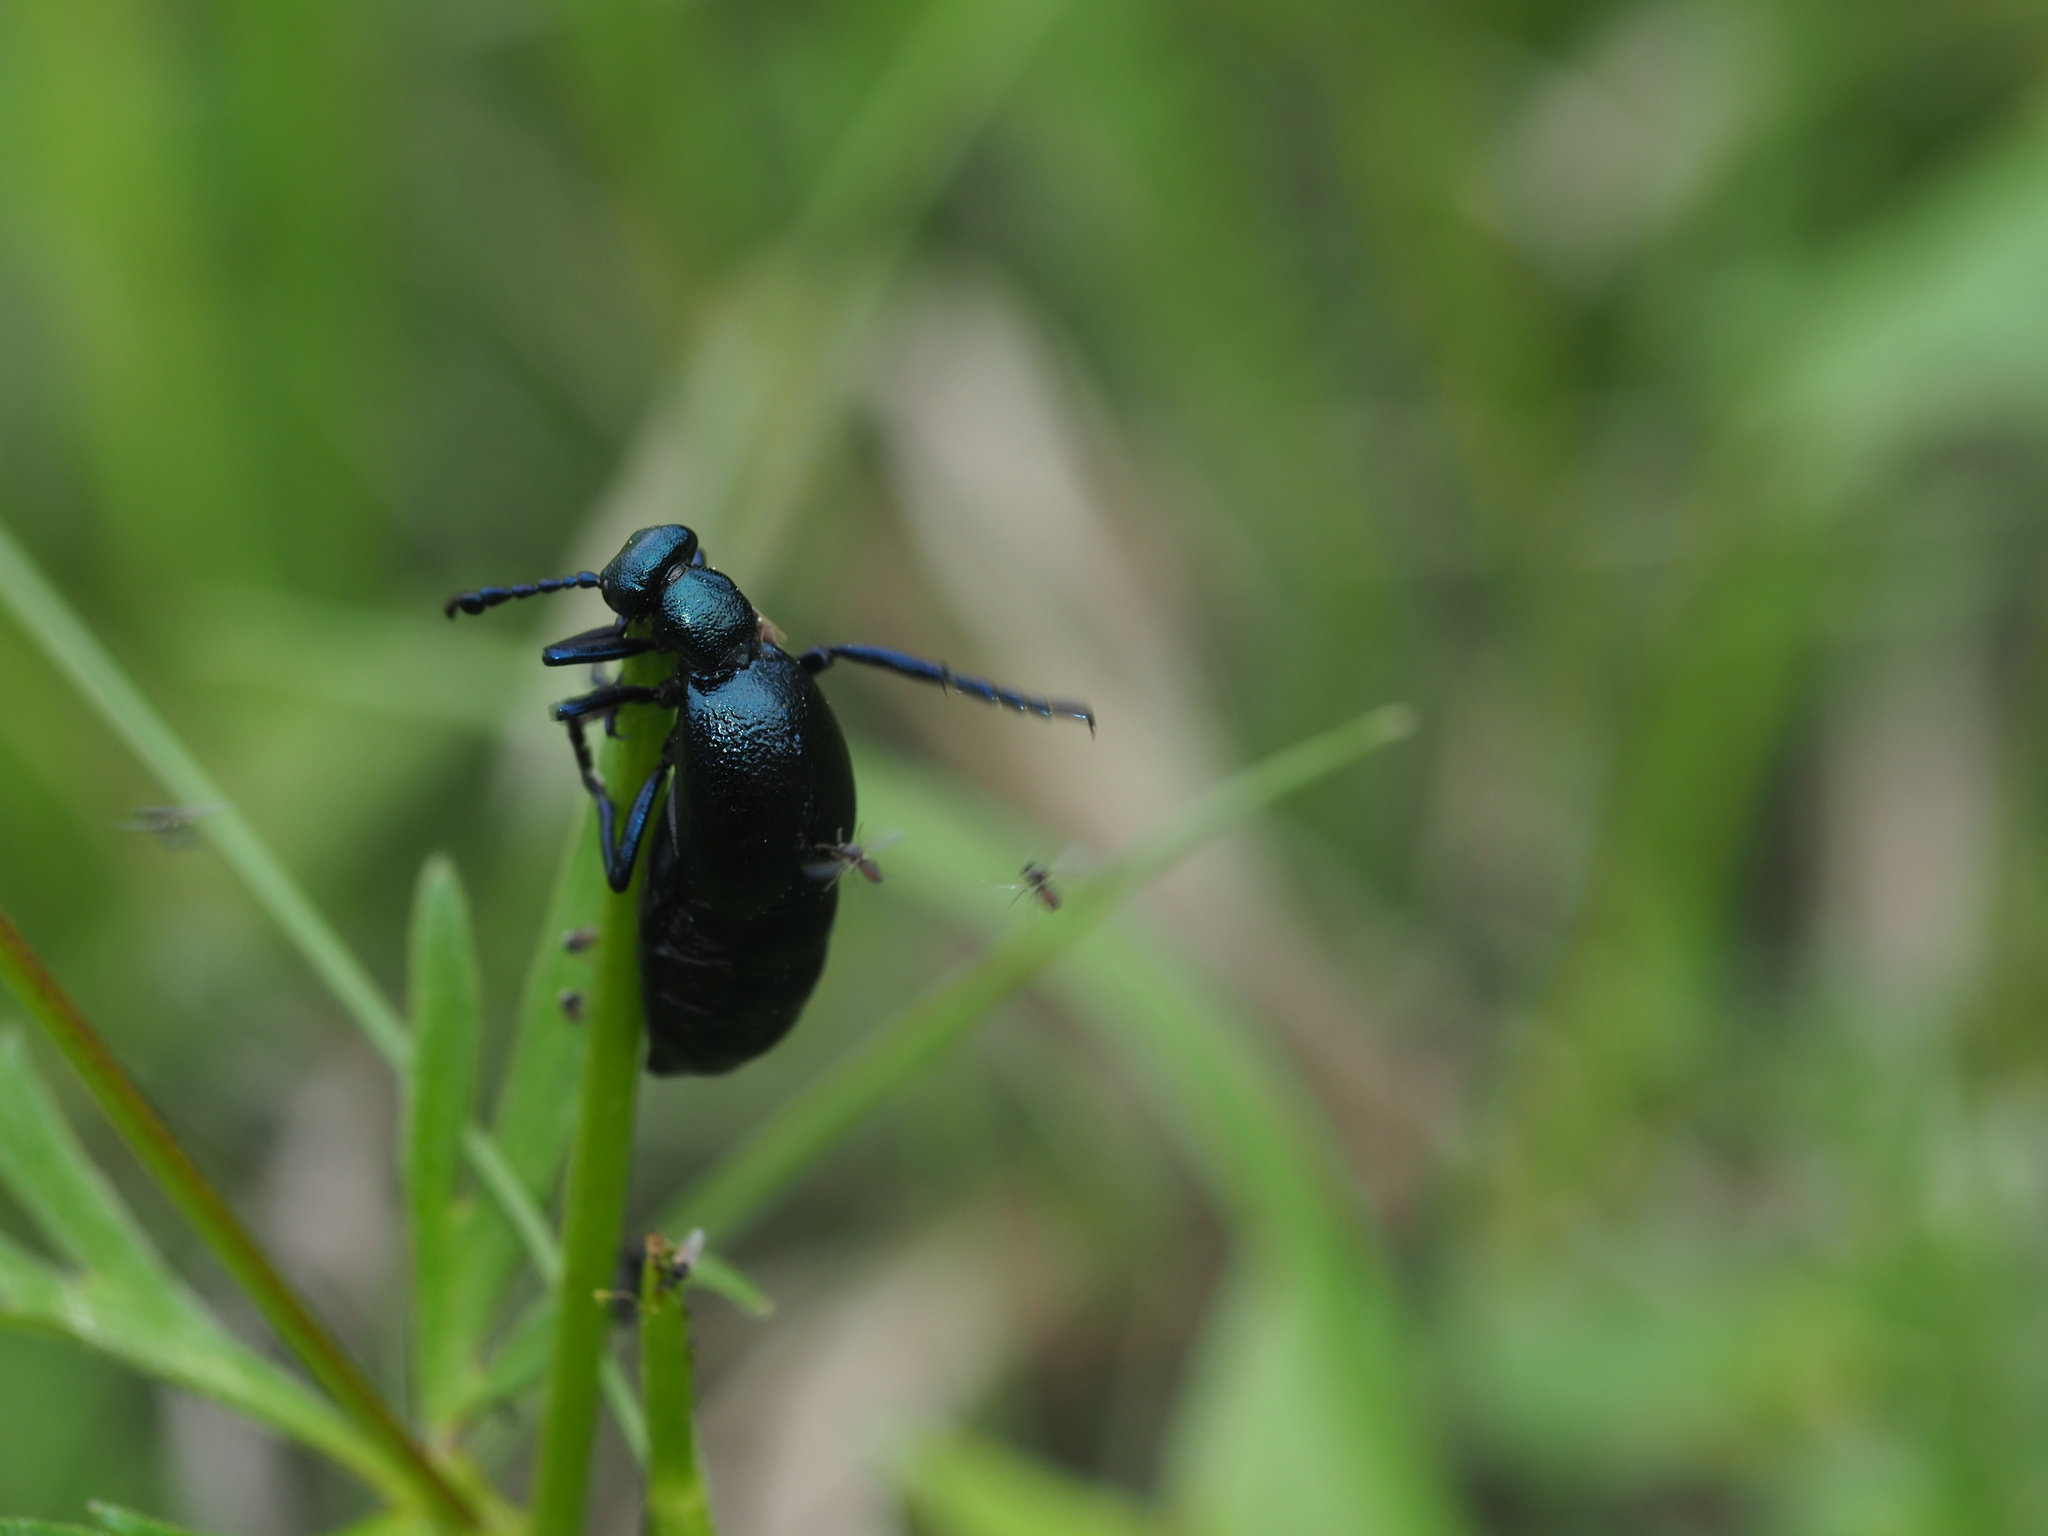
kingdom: Animalia
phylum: Arthropoda
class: Insecta
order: Coleoptera
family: Meloidae
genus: Meloe
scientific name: Meloe violaceus
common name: Violet oil-beetle
